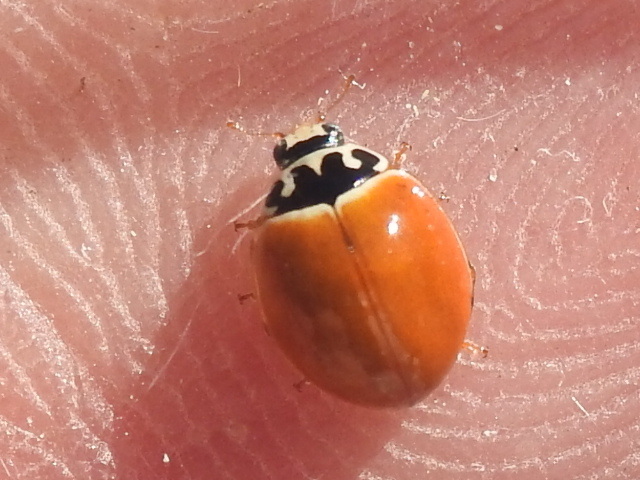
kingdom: Animalia
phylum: Arthropoda
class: Insecta
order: Coleoptera
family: Coccinellidae
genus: Cycloneda
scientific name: Cycloneda munda
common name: Polished lady beetle
